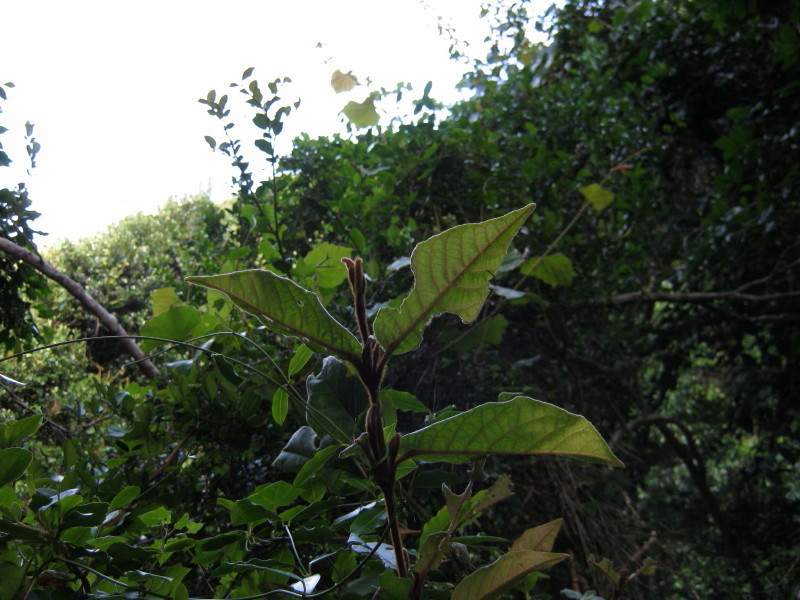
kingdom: Plantae
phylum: Tracheophyta
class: Magnoliopsida
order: Saxifragales
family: Hamamelidaceae
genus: Trichocladus
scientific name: Trichocladus crinitus
